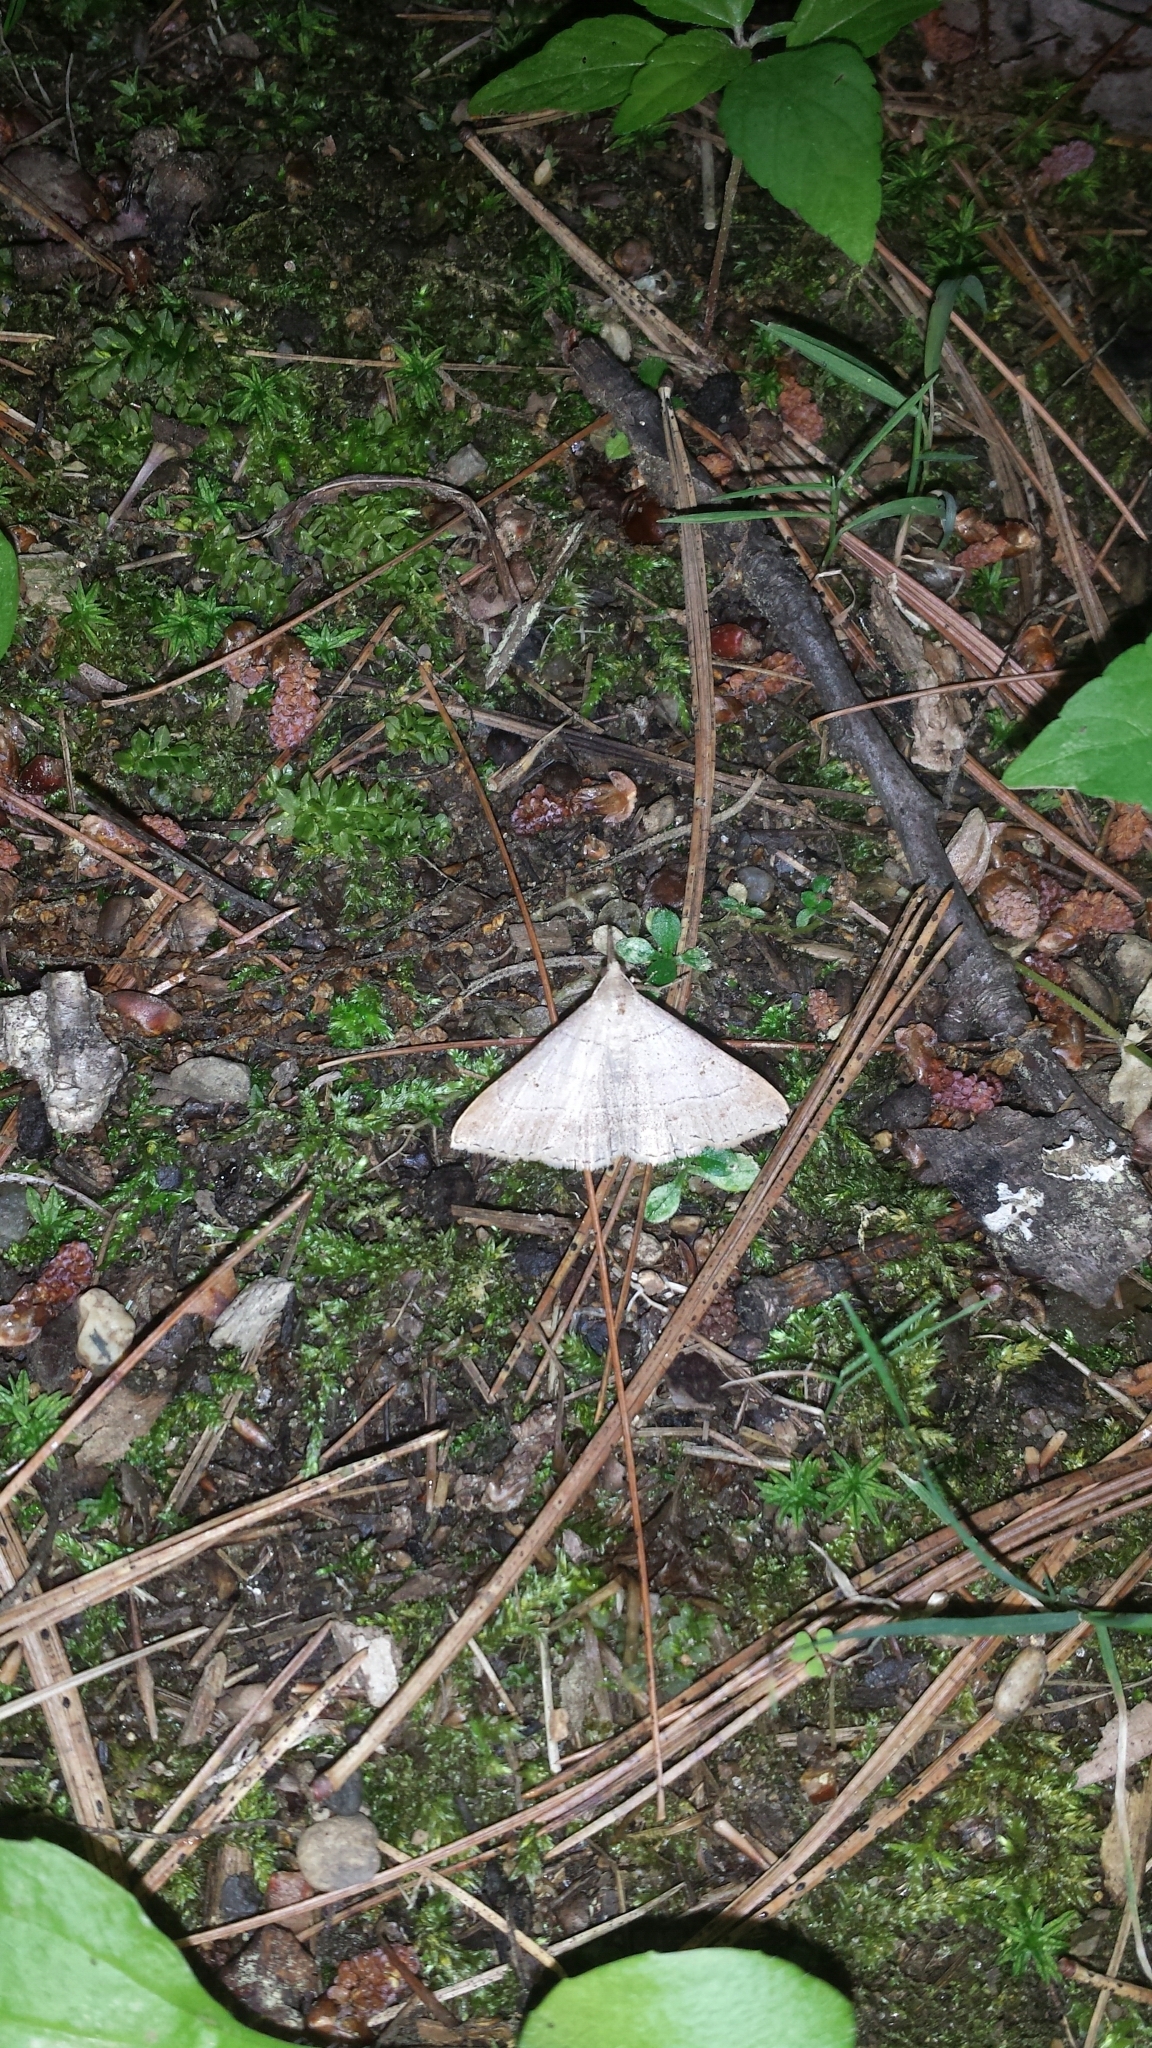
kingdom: Animalia
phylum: Arthropoda
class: Insecta
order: Lepidoptera
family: Erebidae
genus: Renia
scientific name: Renia flavipunctalis
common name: Yellow-spotted renia moth
